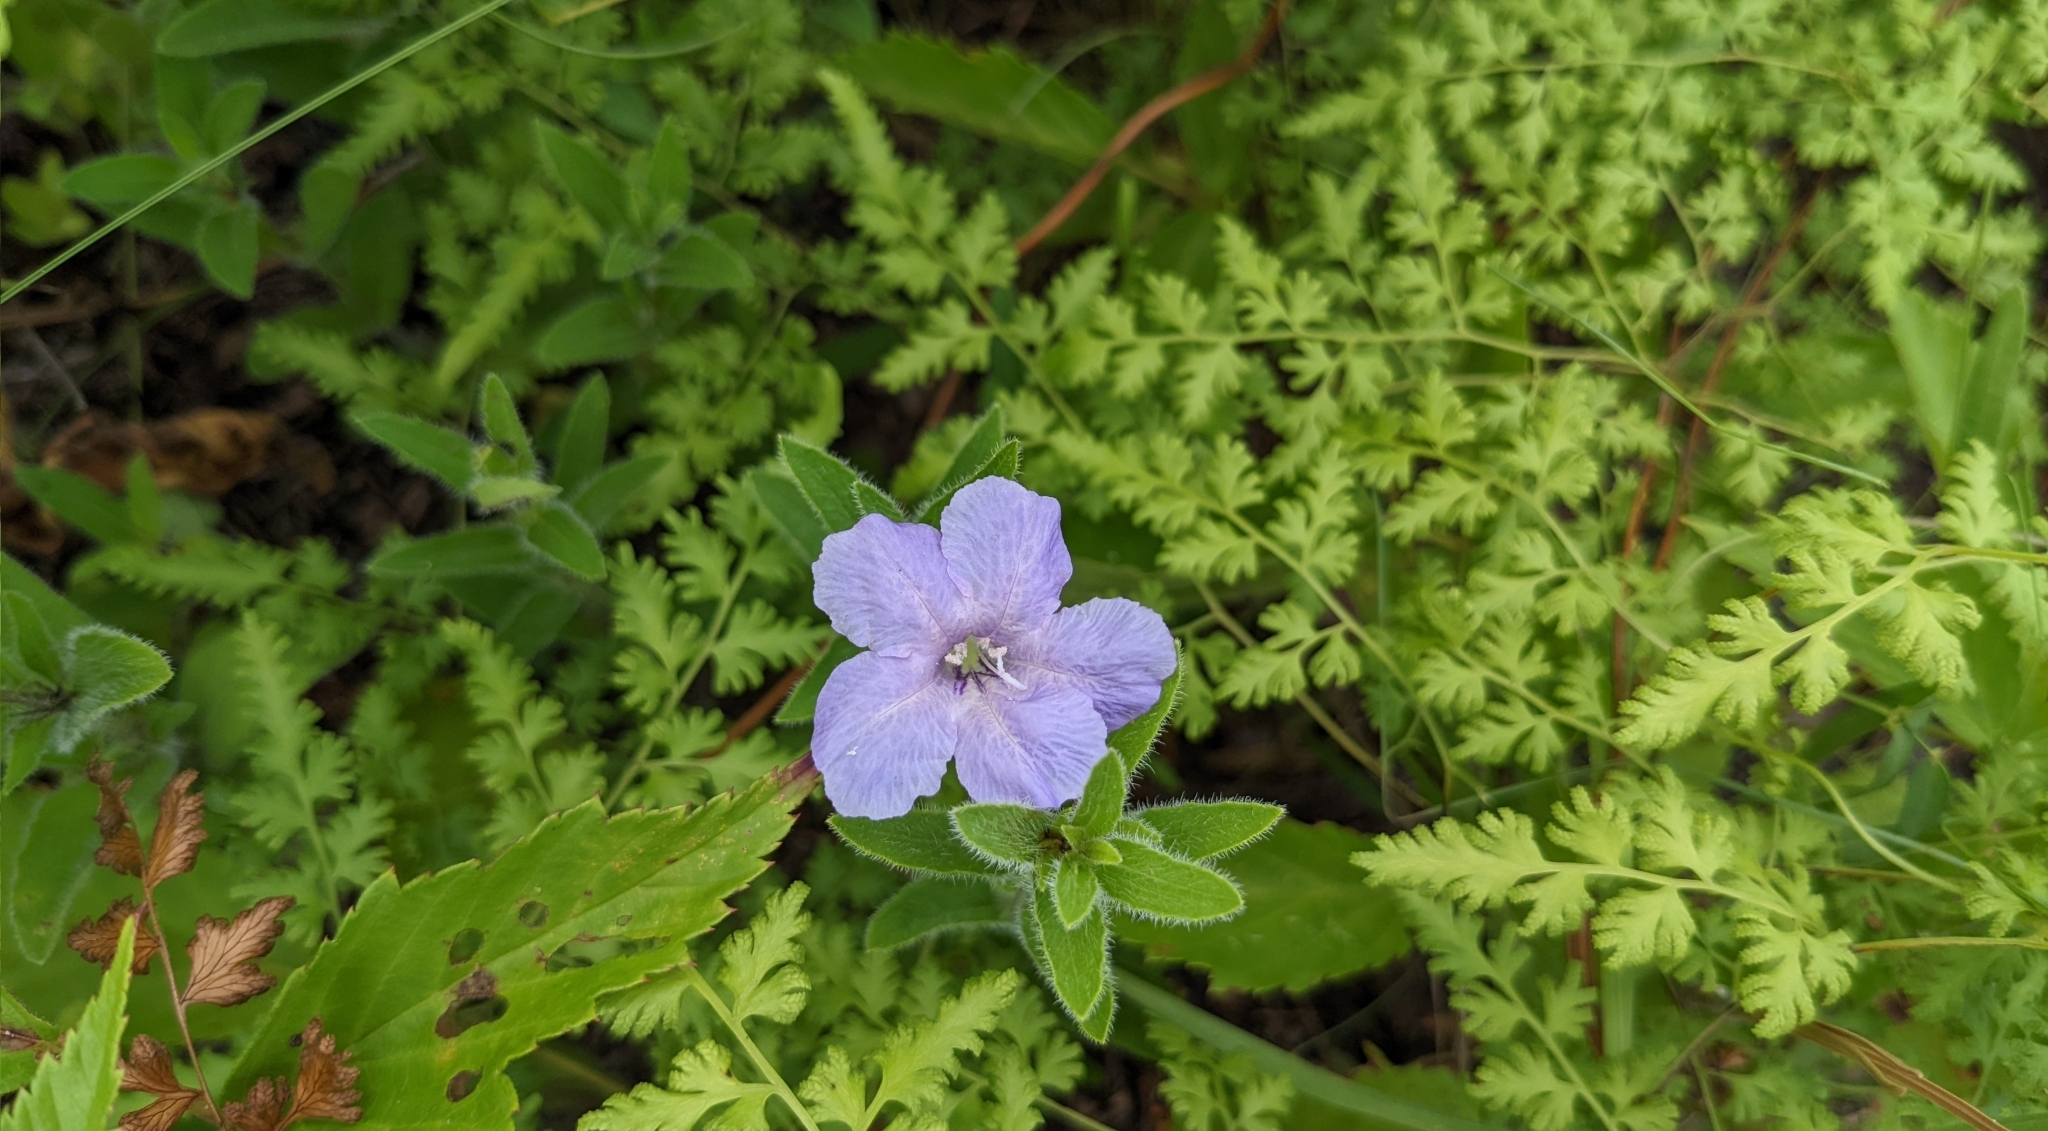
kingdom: Plantae
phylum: Tracheophyta
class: Magnoliopsida
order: Lamiales
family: Acanthaceae
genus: Ruellia
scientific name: Ruellia humilis
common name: Fringe-leaf ruellia
